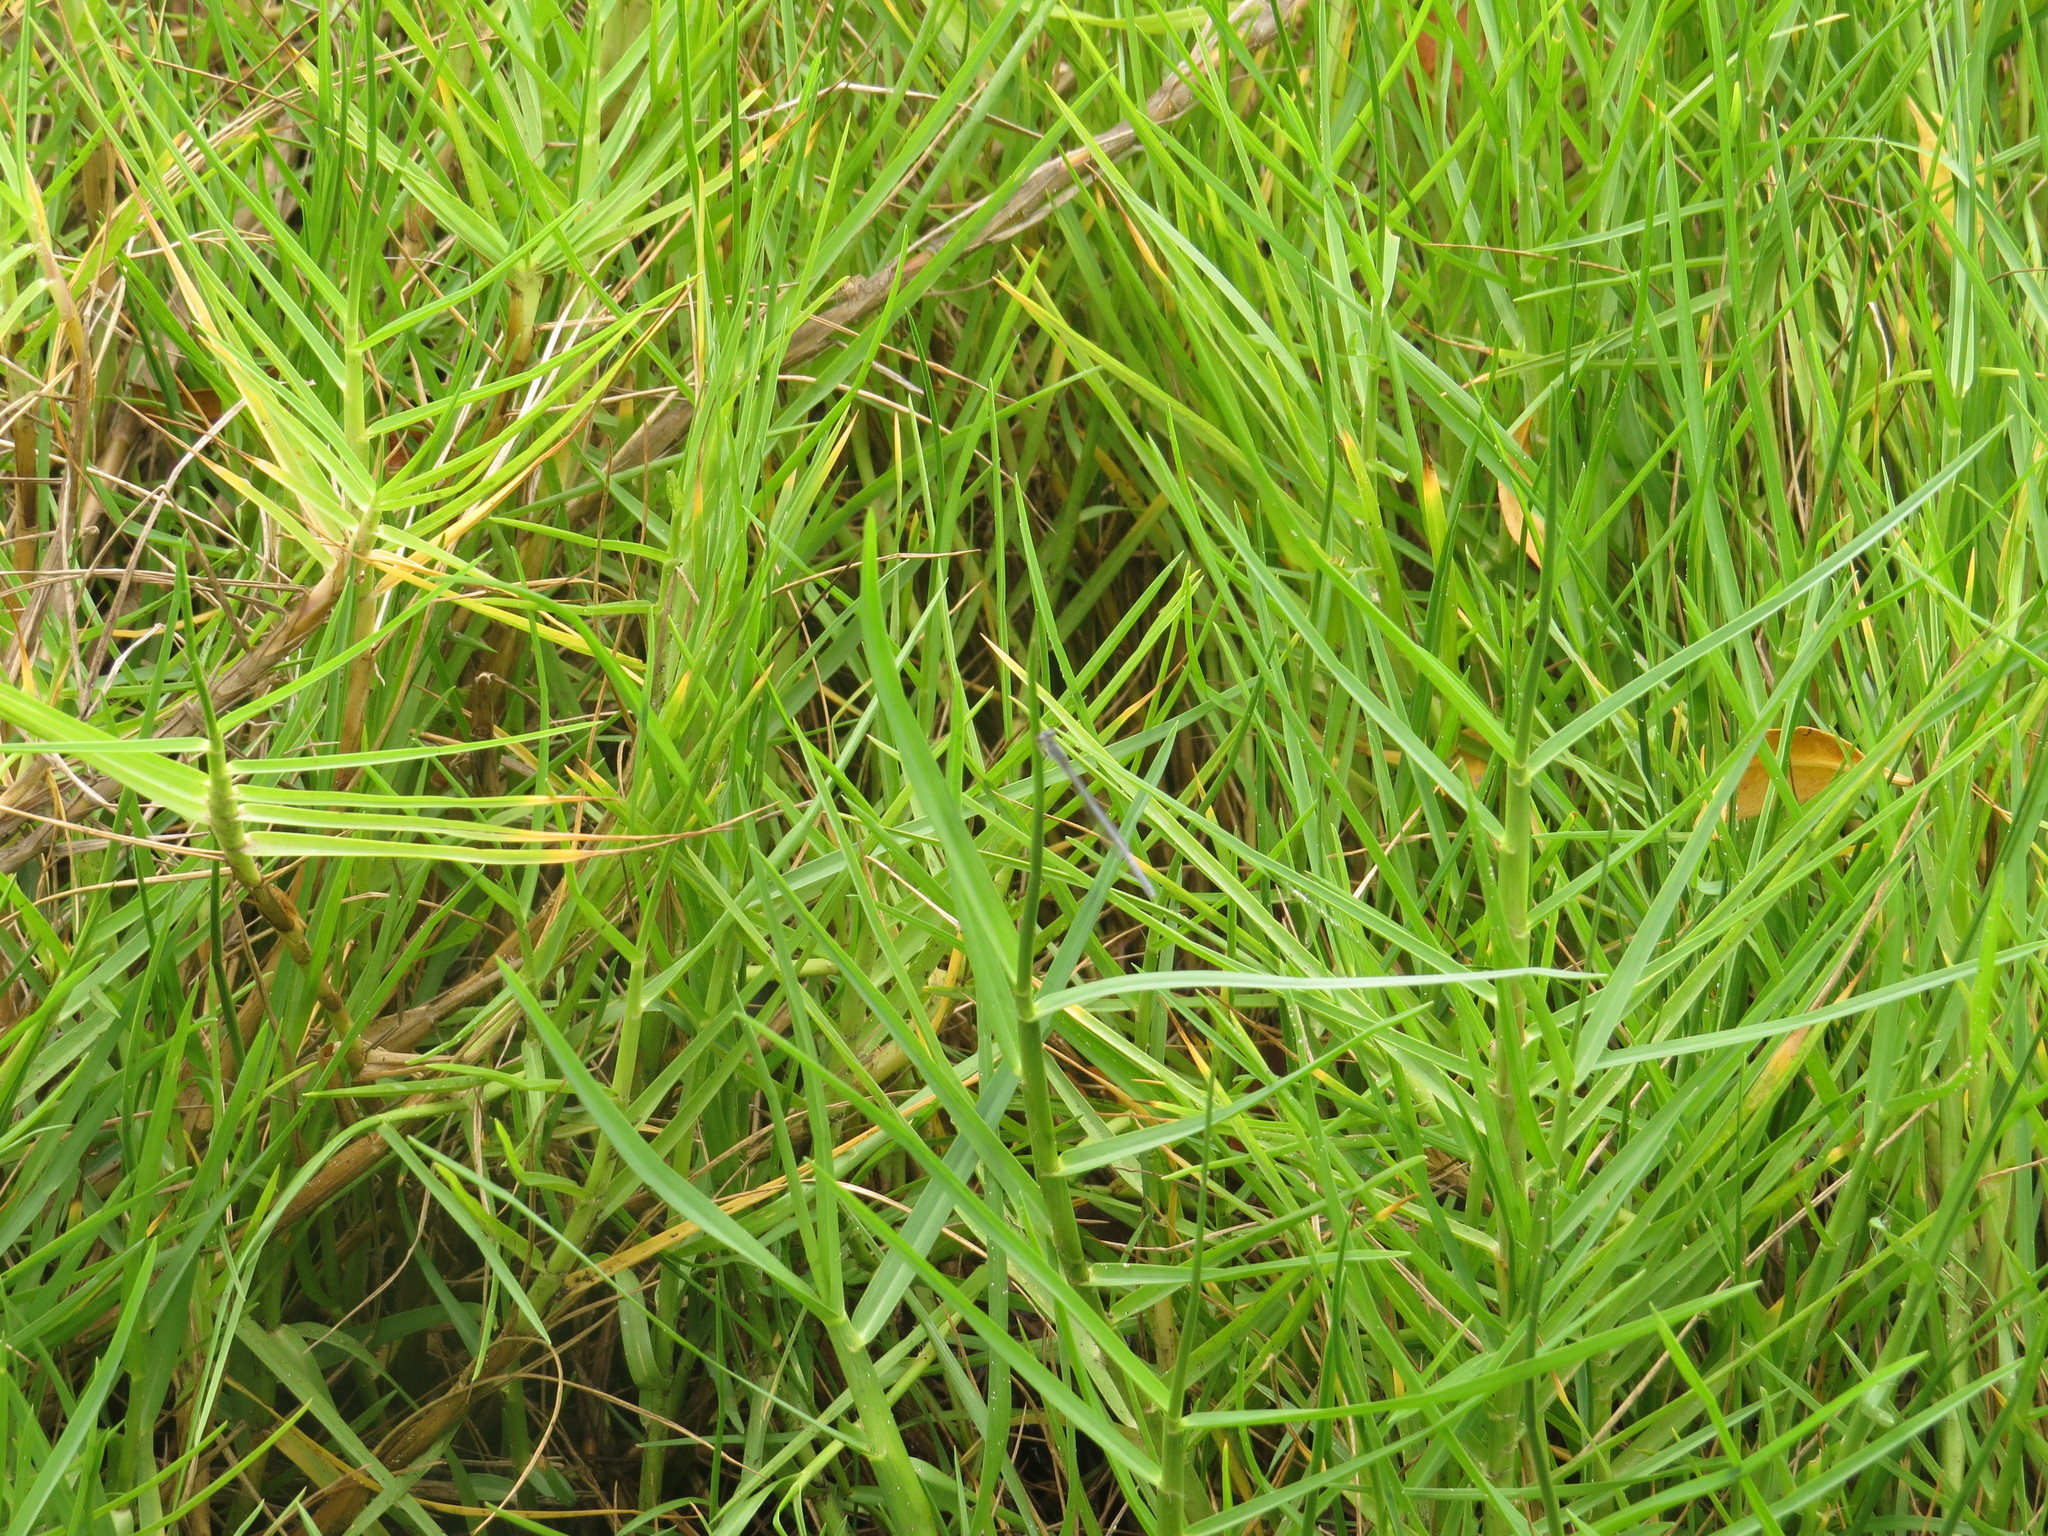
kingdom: Animalia
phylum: Arthropoda
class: Insecta
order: Odonata
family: Coenagrionidae
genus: Ischnura
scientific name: Ischnura hastata
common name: Citrine forktail
